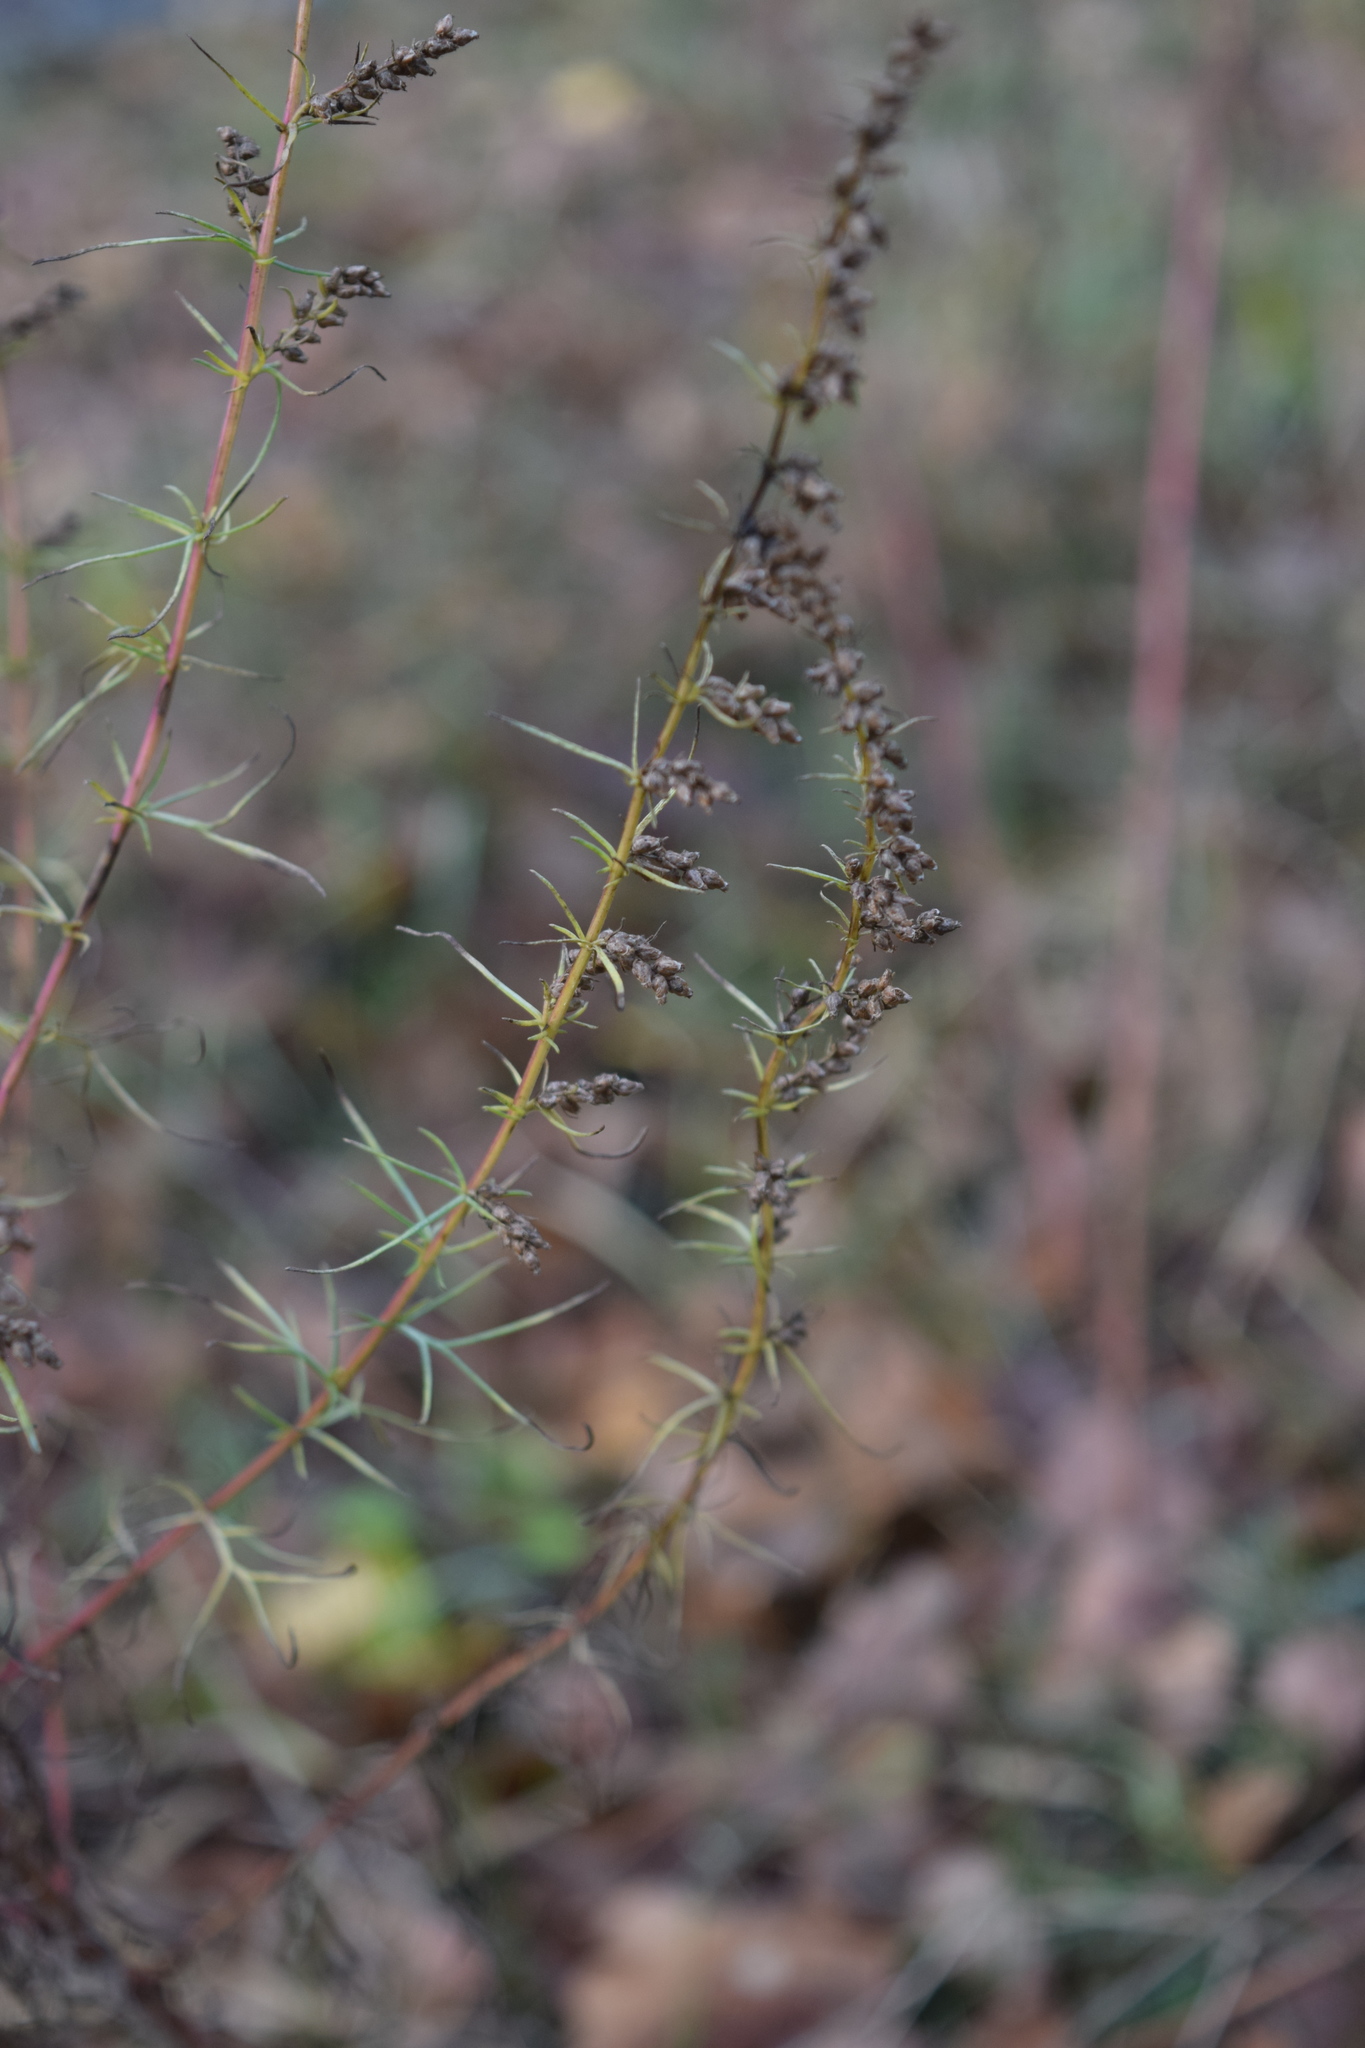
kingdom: Plantae
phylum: Tracheophyta
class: Magnoliopsida
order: Asterales
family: Asteraceae
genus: Artemisia
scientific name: Artemisia campestris
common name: Field wormwood
